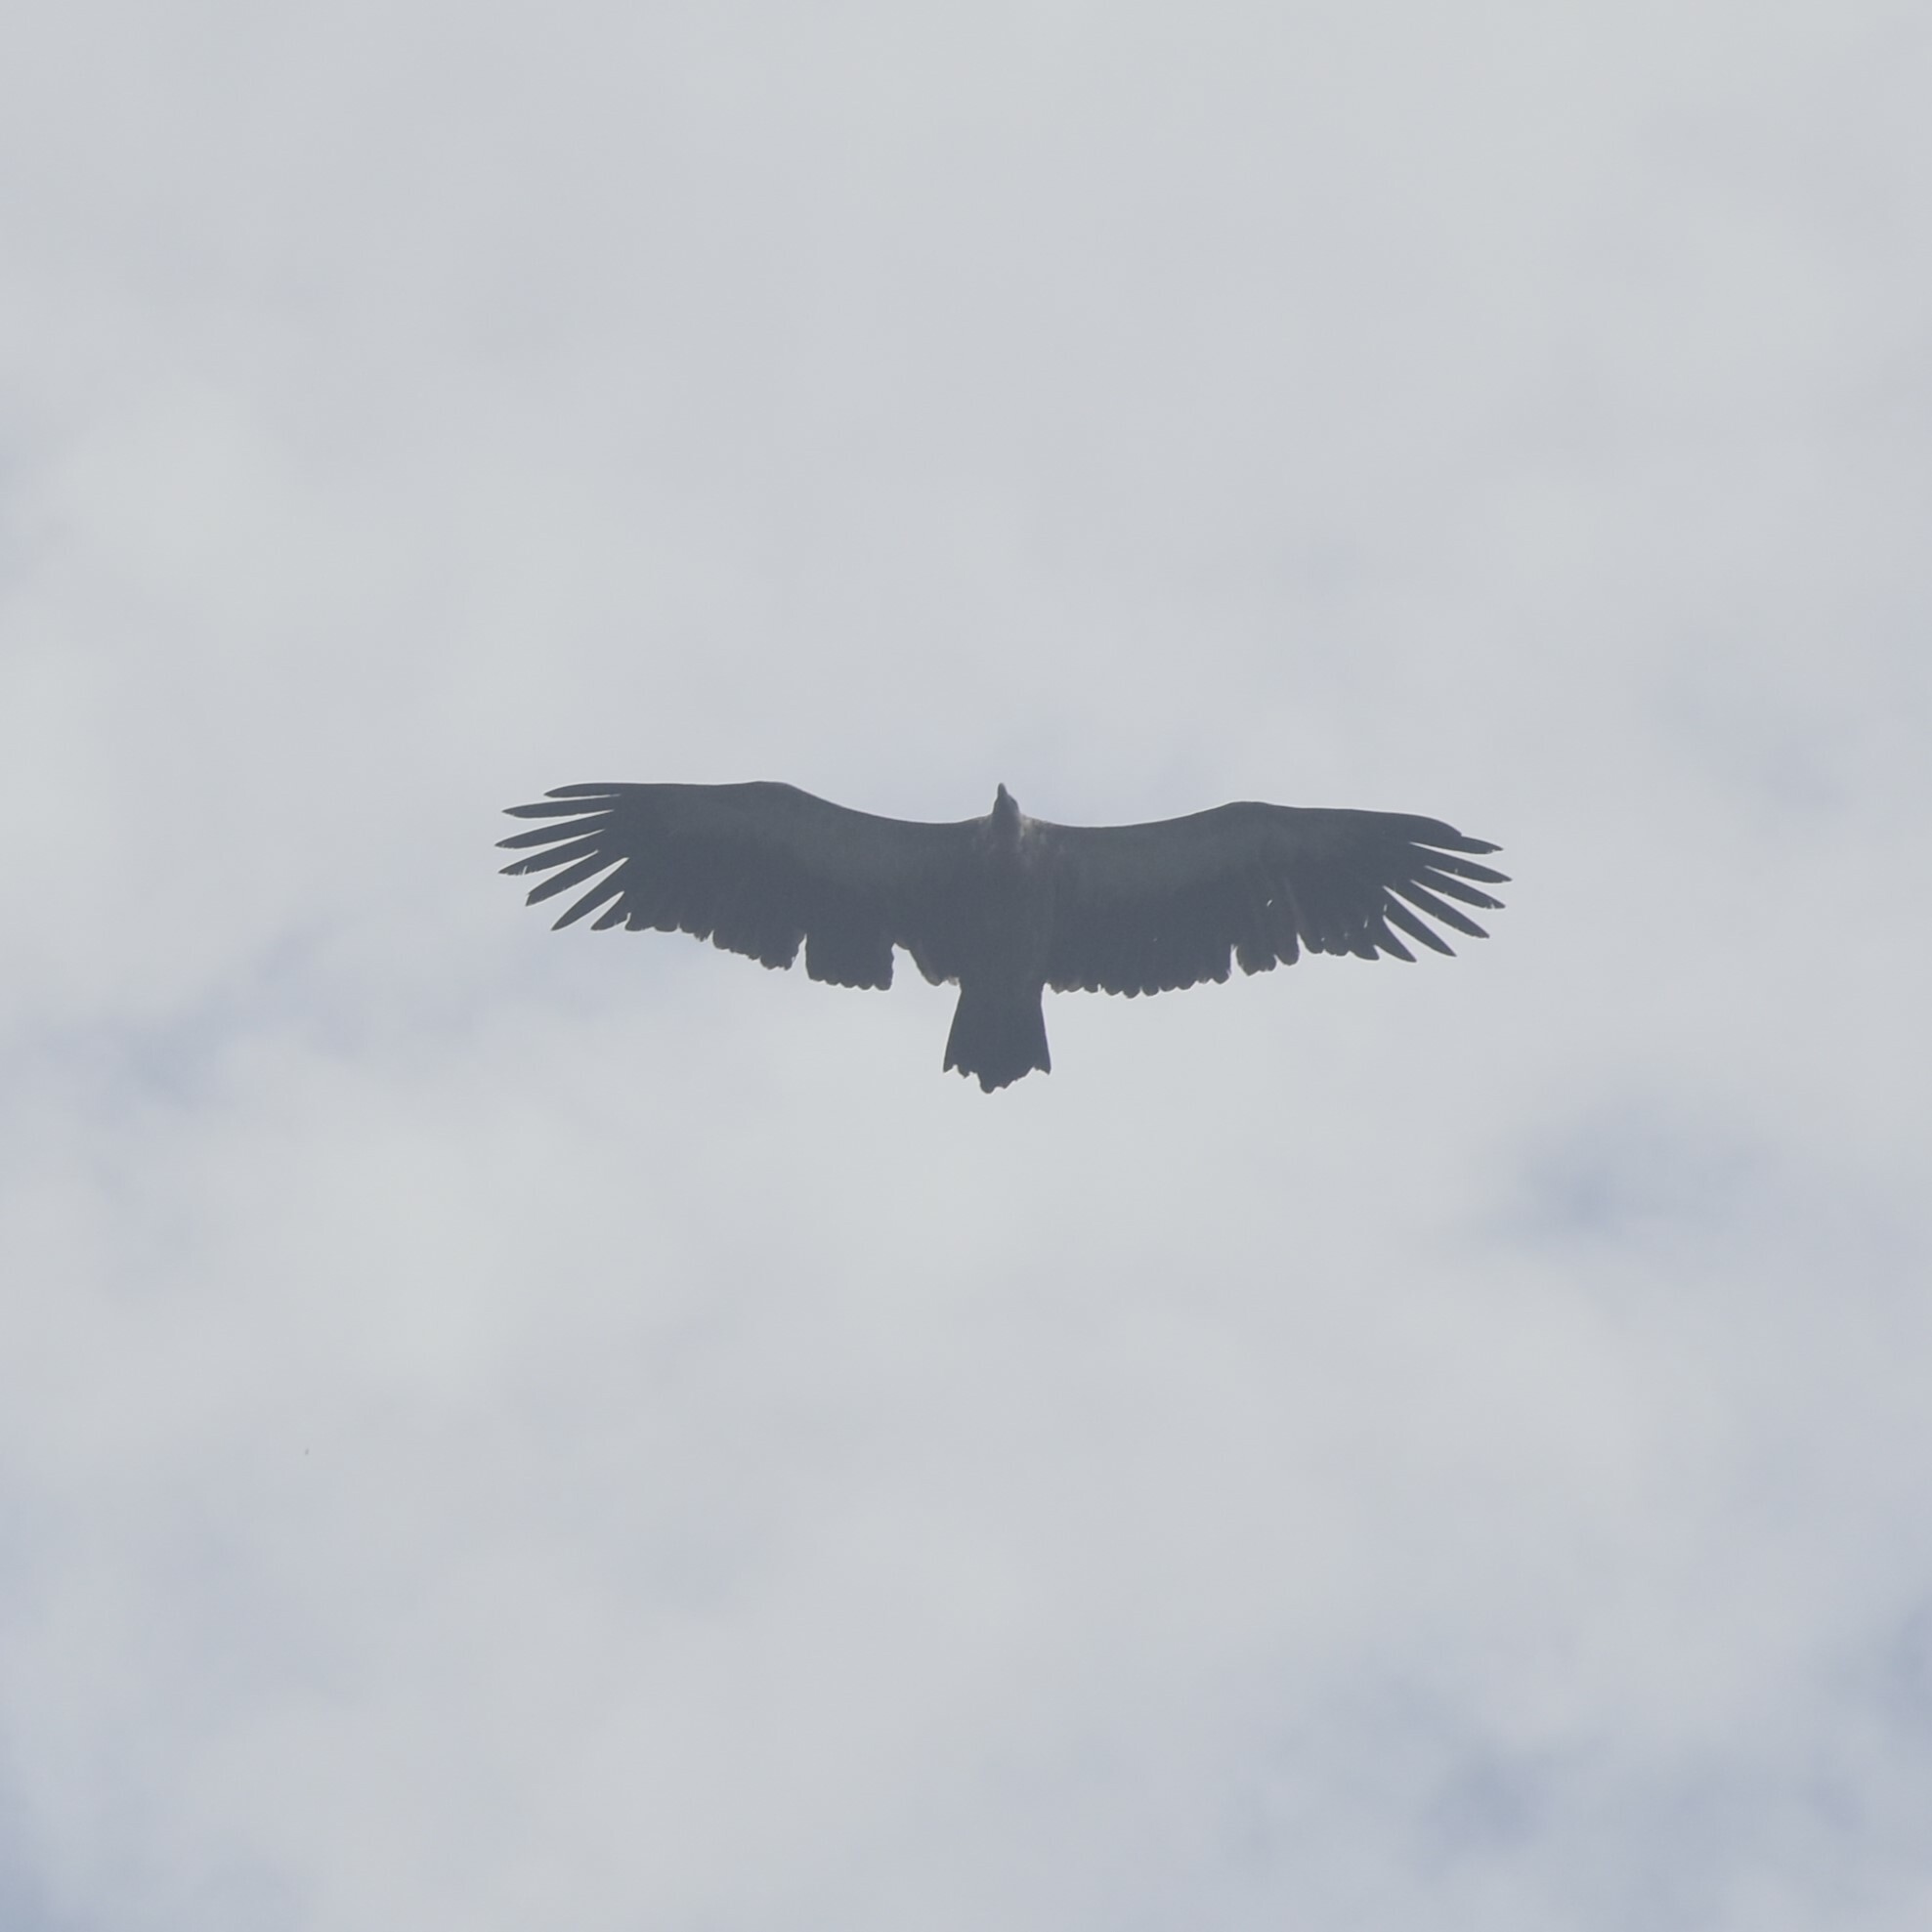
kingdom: Animalia
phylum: Chordata
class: Aves
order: Accipitriformes
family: Accipitridae
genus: Gyps
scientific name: Gyps himalayensis
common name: Himalayan griffon
